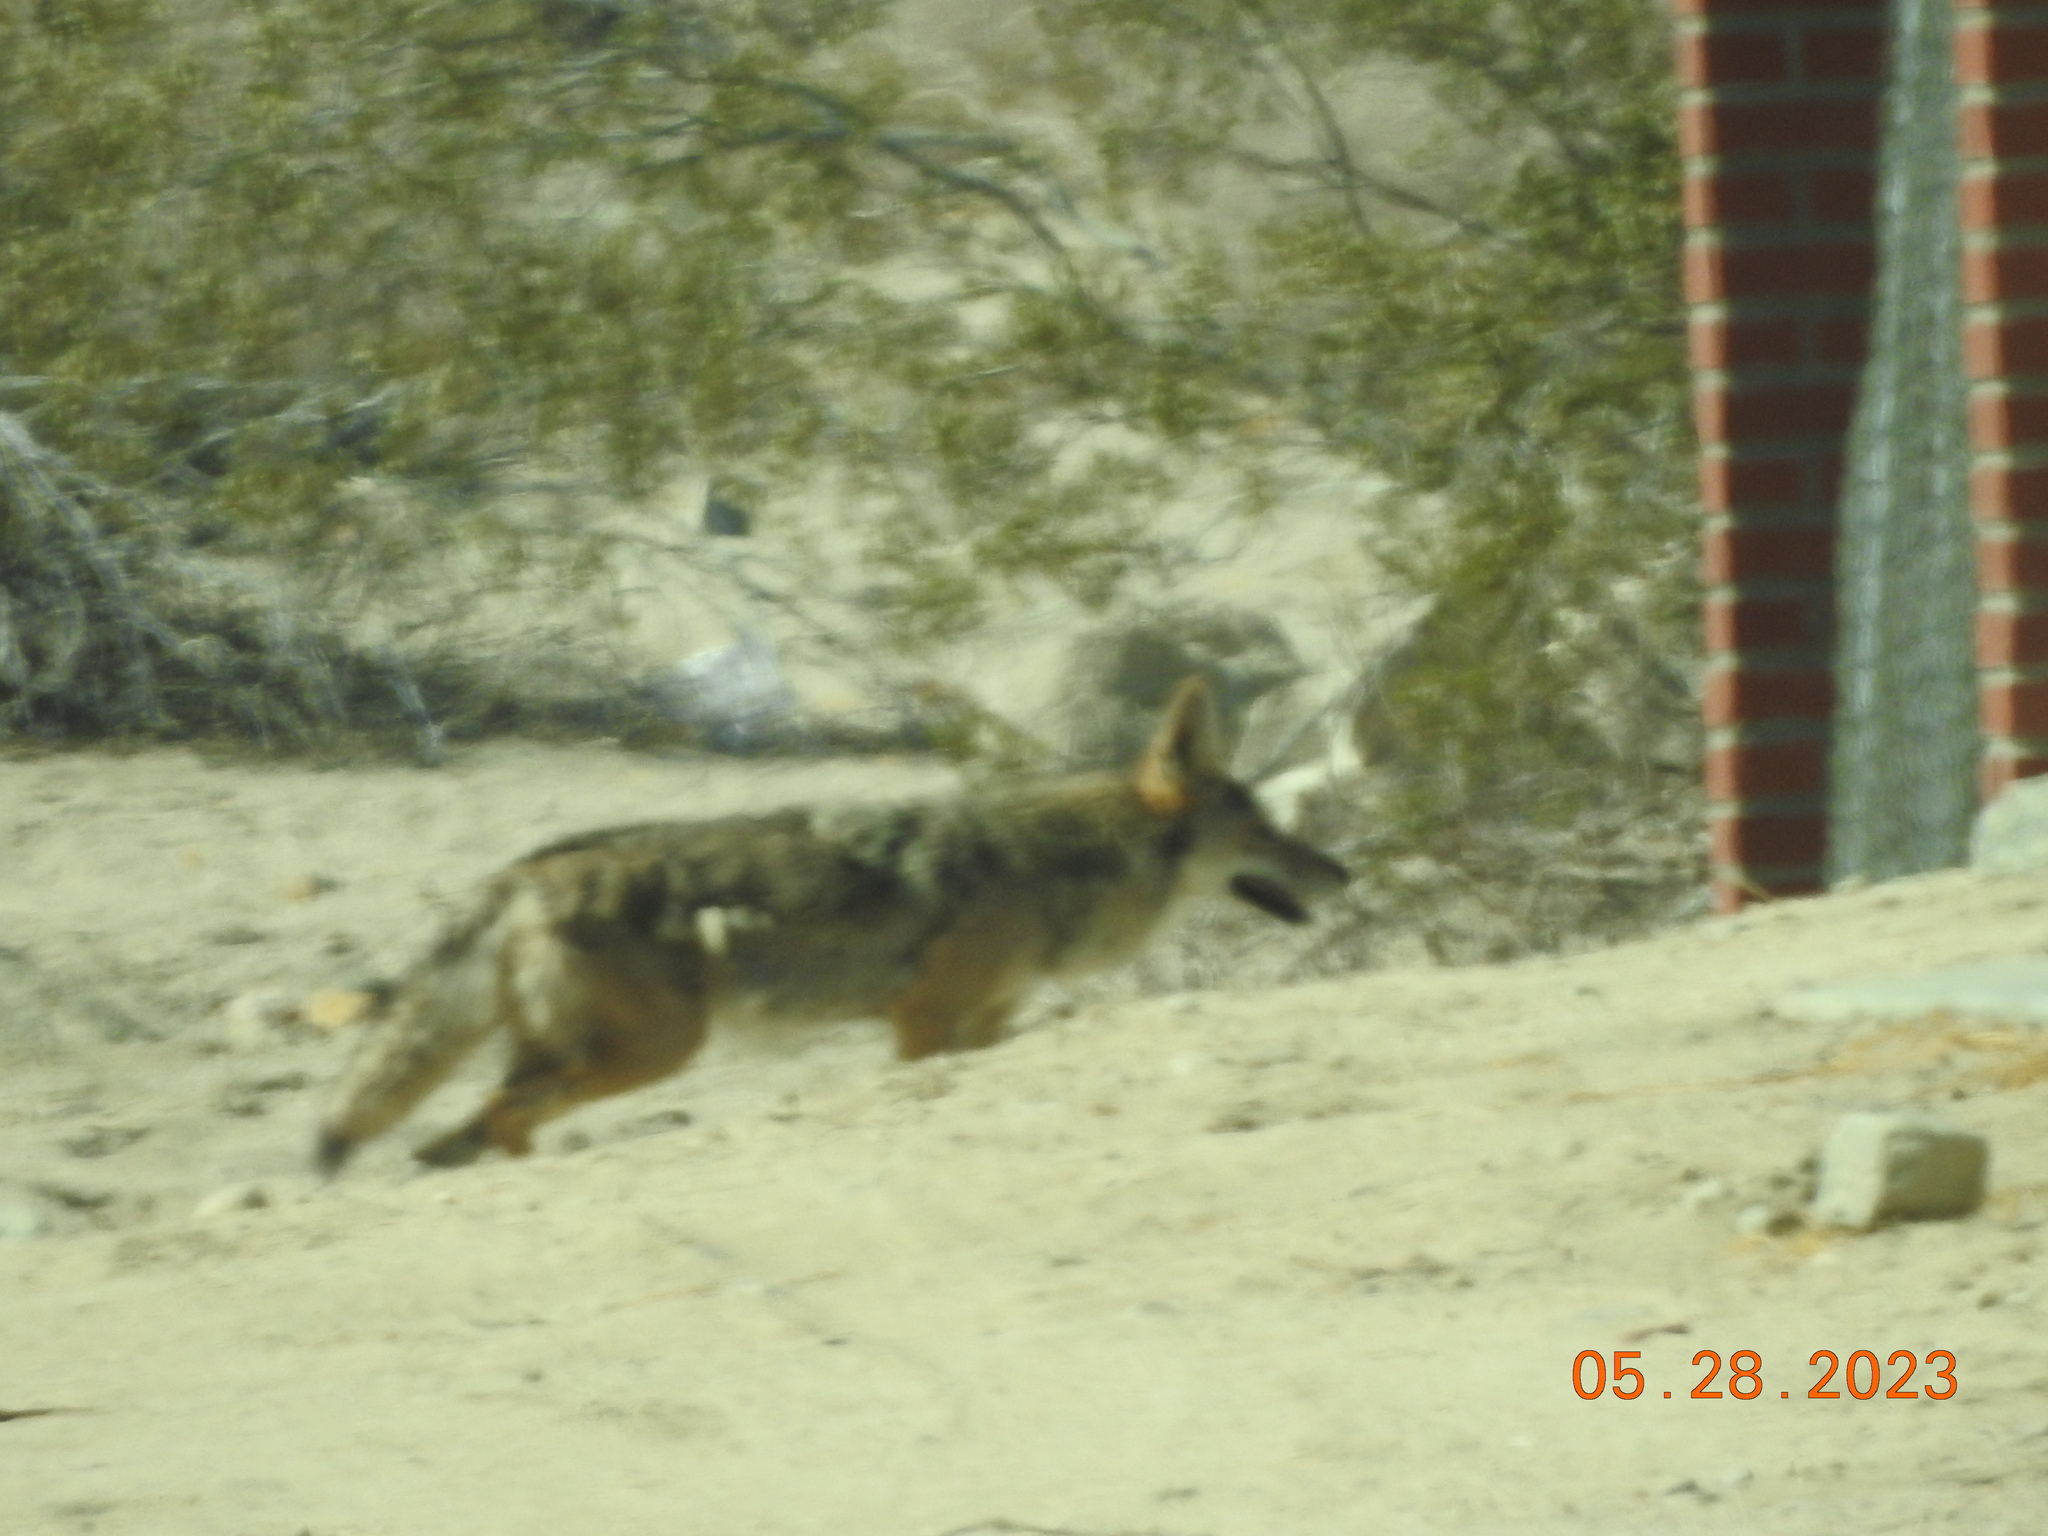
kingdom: Animalia
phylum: Chordata
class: Mammalia
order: Carnivora
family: Canidae
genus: Canis
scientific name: Canis latrans
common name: Coyote
